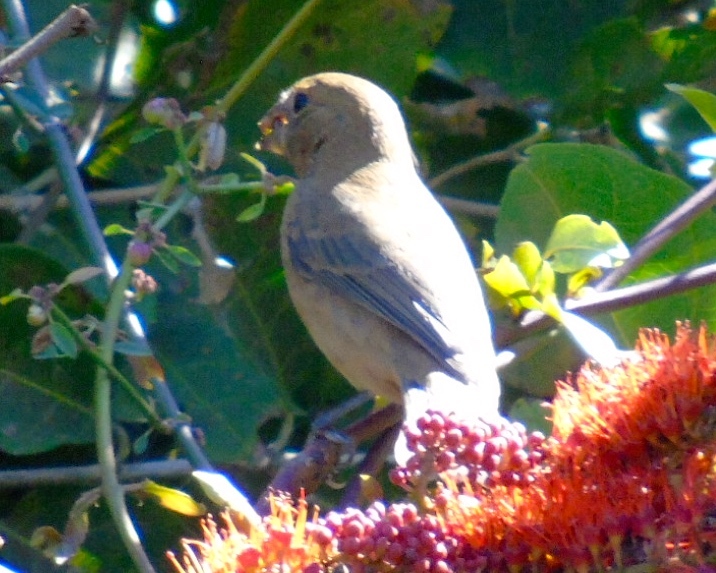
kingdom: Animalia
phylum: Chordata
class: Aves
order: Passeriformes
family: Cardinalidae
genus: Passerina
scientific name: Passerina
